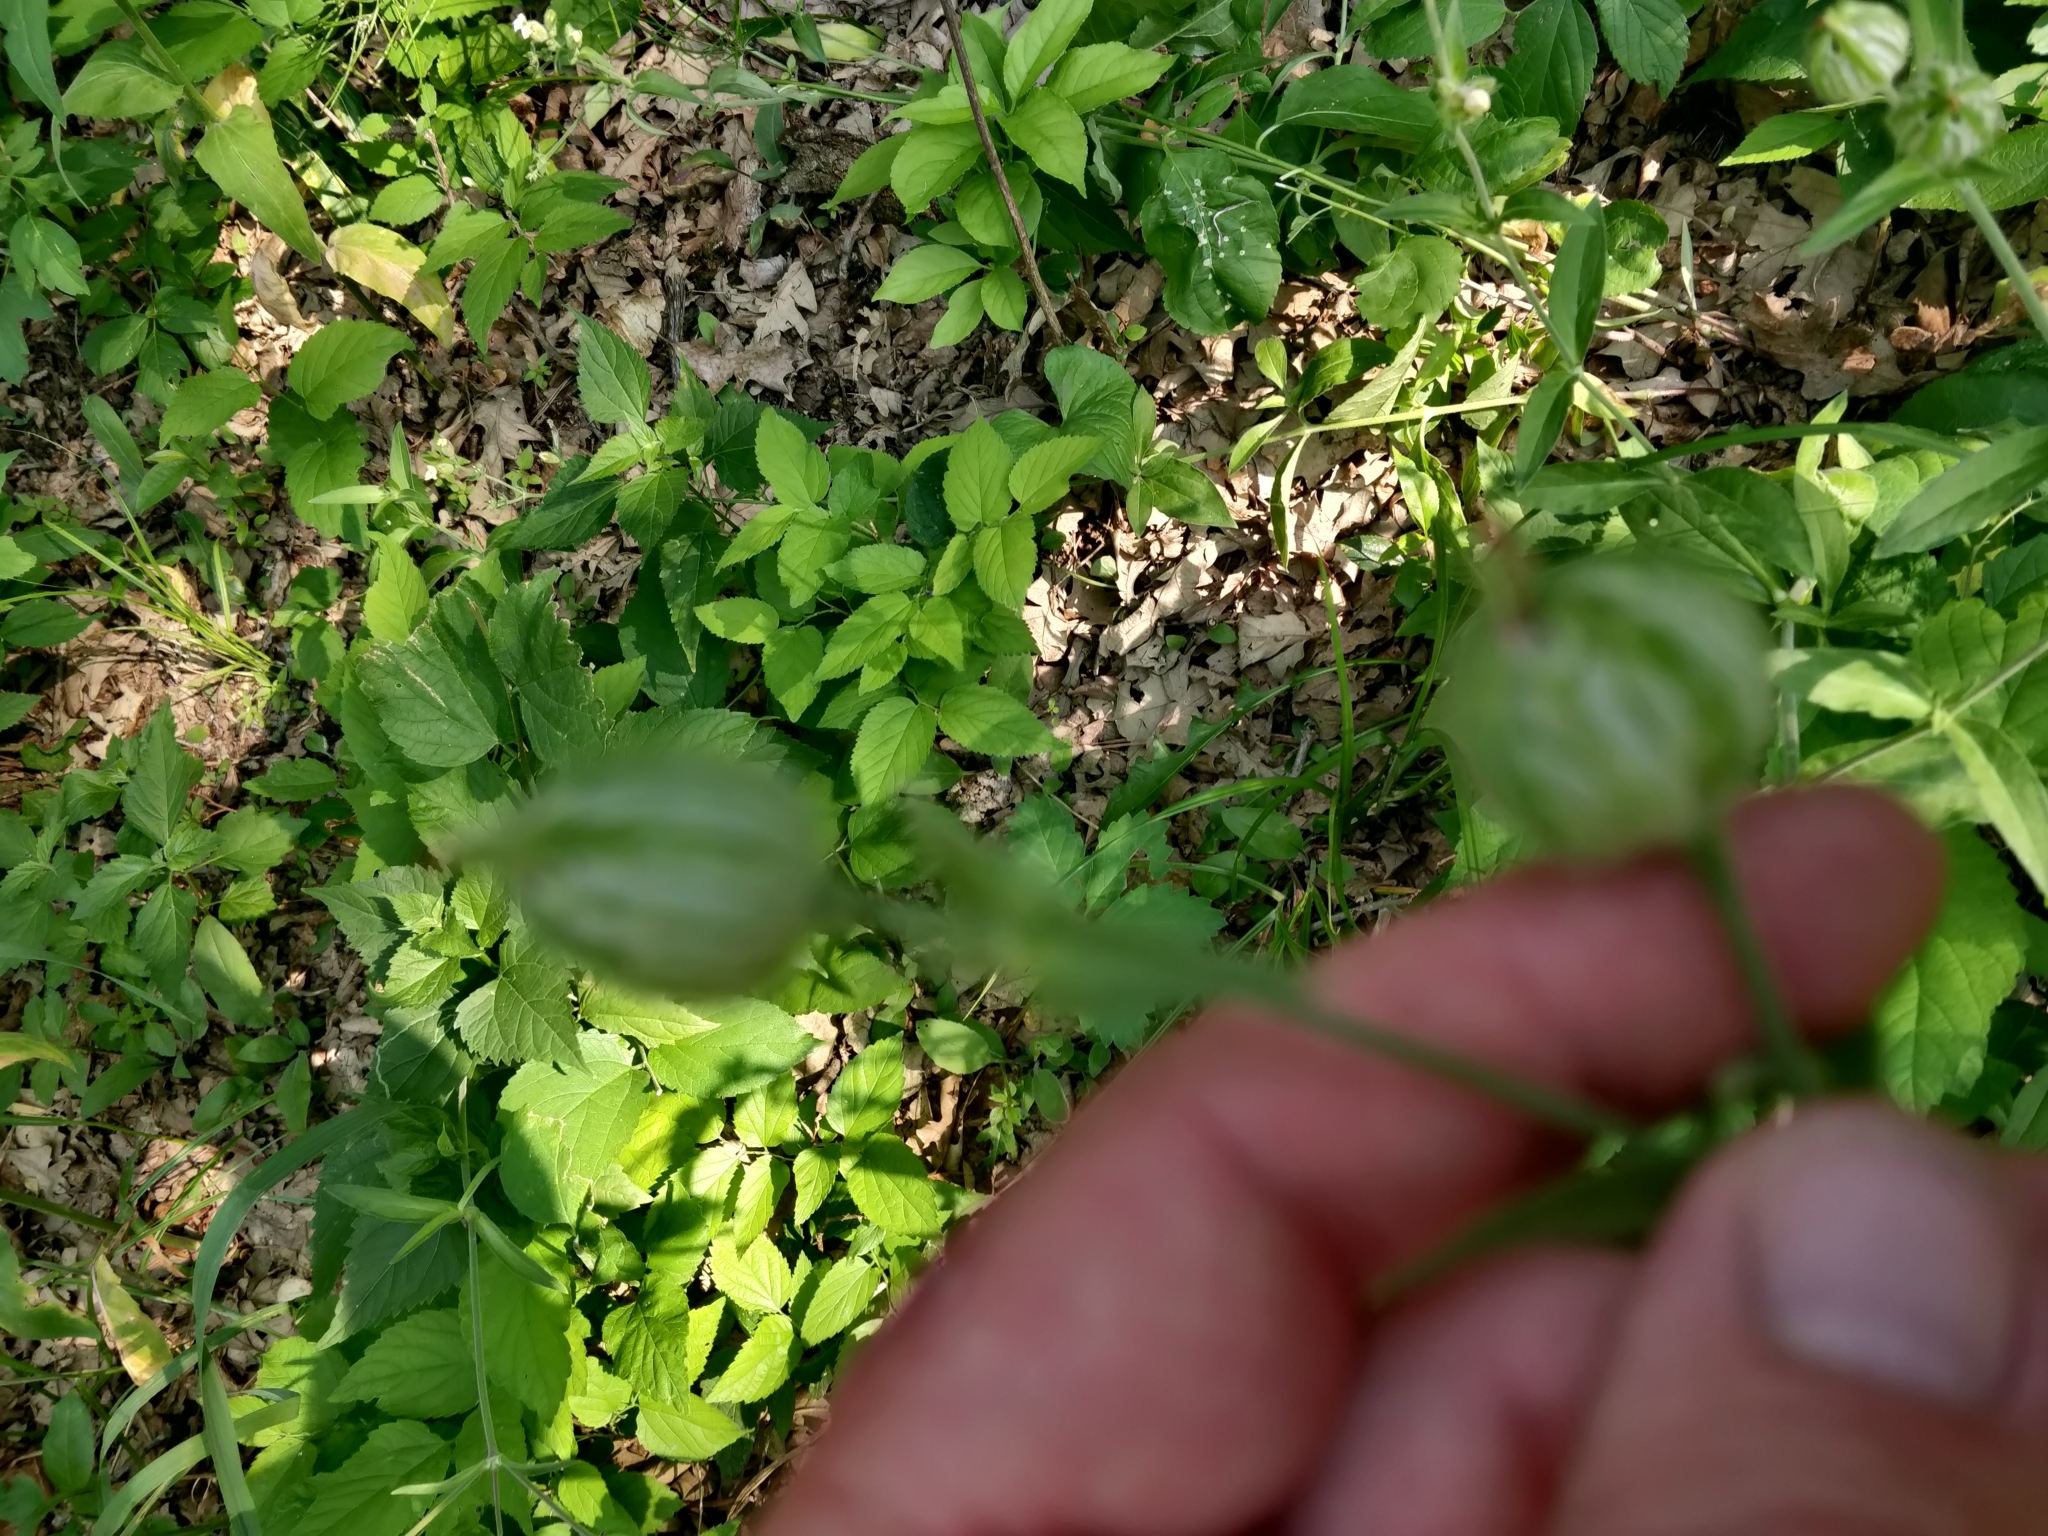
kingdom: Plantae
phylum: Tracheophyta
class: Magnoliopsida
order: Caryophyllales
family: Caryophyllaceae
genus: Silene
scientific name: Silene latifolia
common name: White campion
